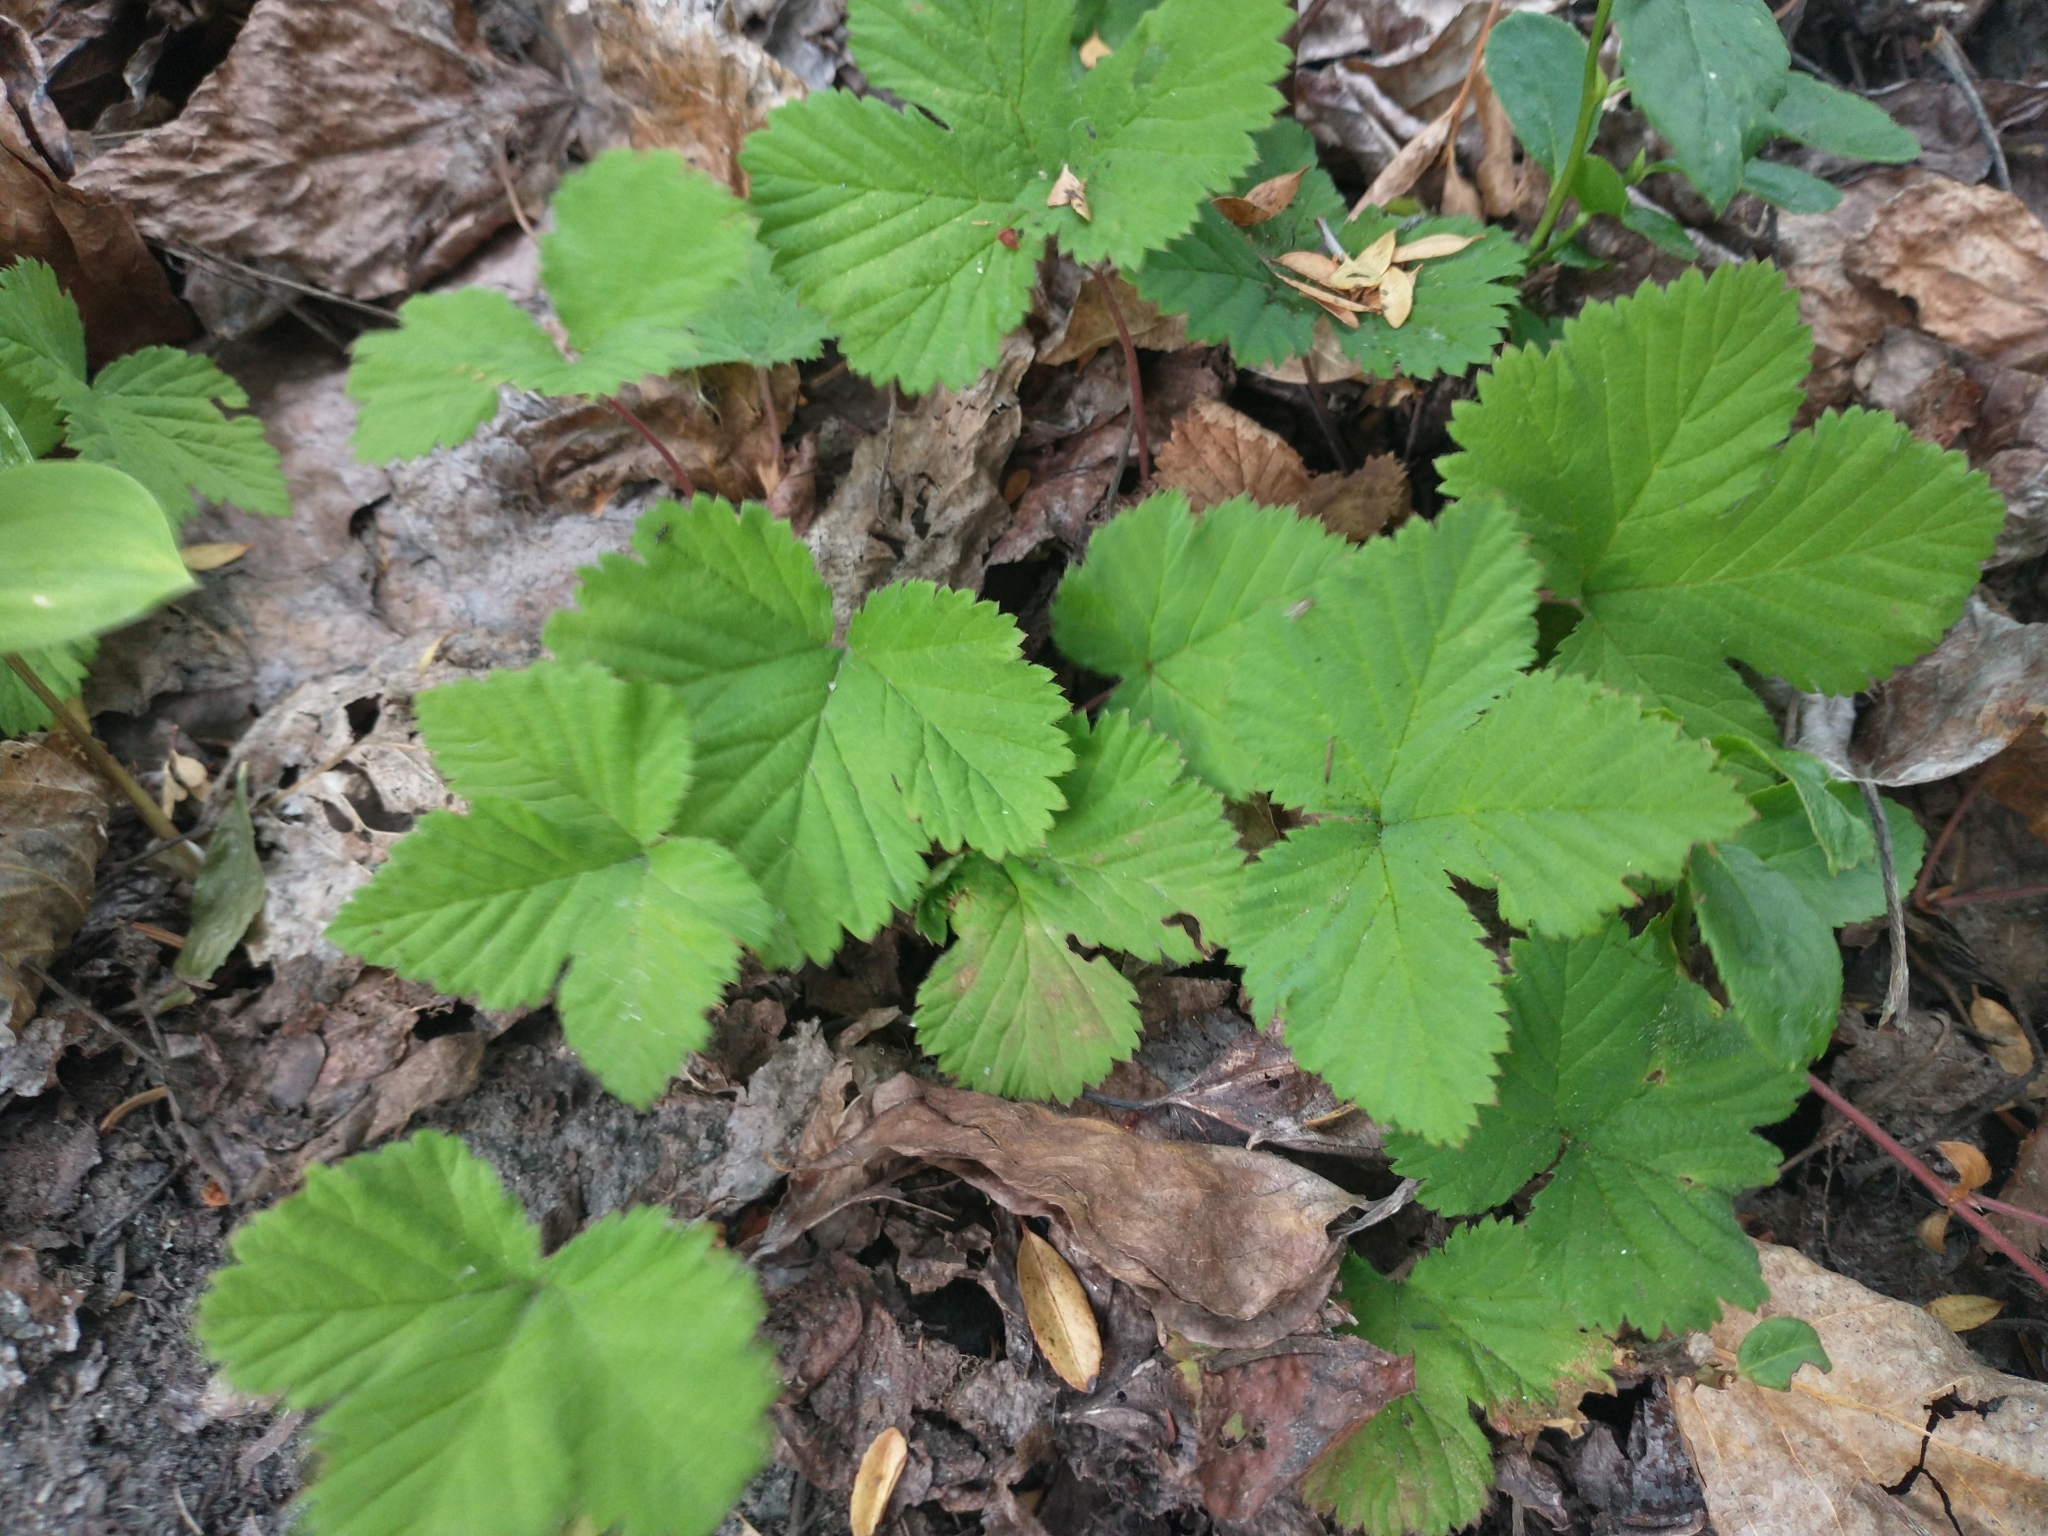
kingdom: Plantae
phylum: Tracheophyta
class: Magnoliopsida
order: Rosales
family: Rosaceae
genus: Rubus
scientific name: Rubus lasiococcus
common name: Dwarf bramble
